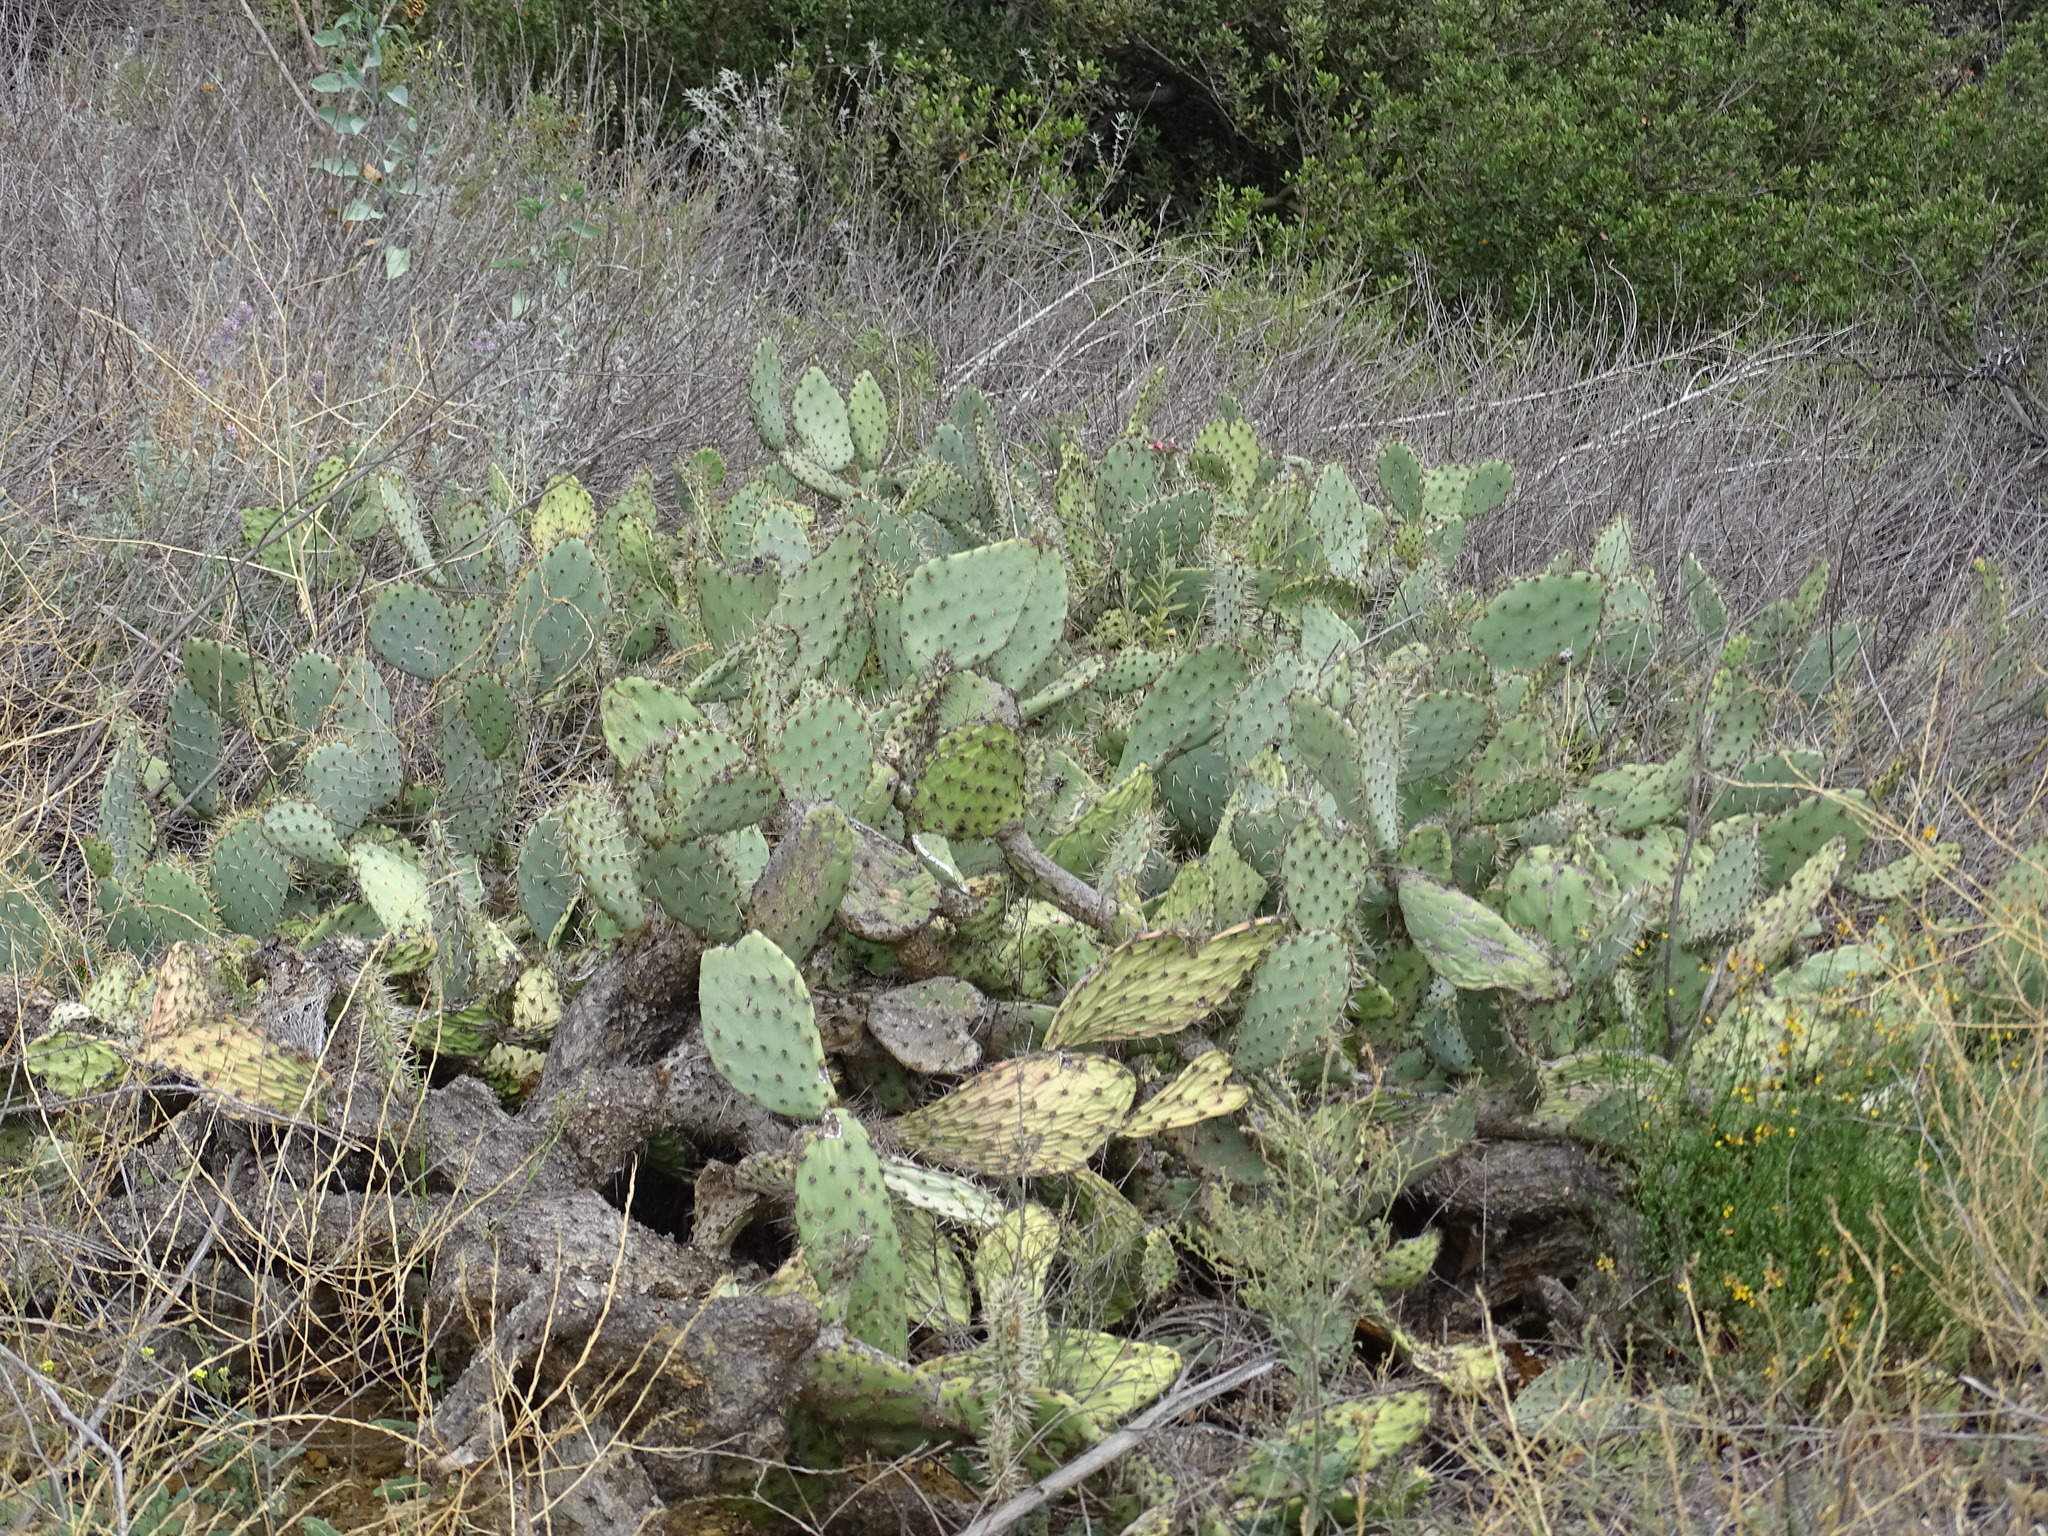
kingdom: Plantae
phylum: Tracheophyta
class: Magnoliopsida
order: Caryophyllales
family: Cactaceae
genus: Opuntia
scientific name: Opuntia littoralis
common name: Coastal prickly-pear
